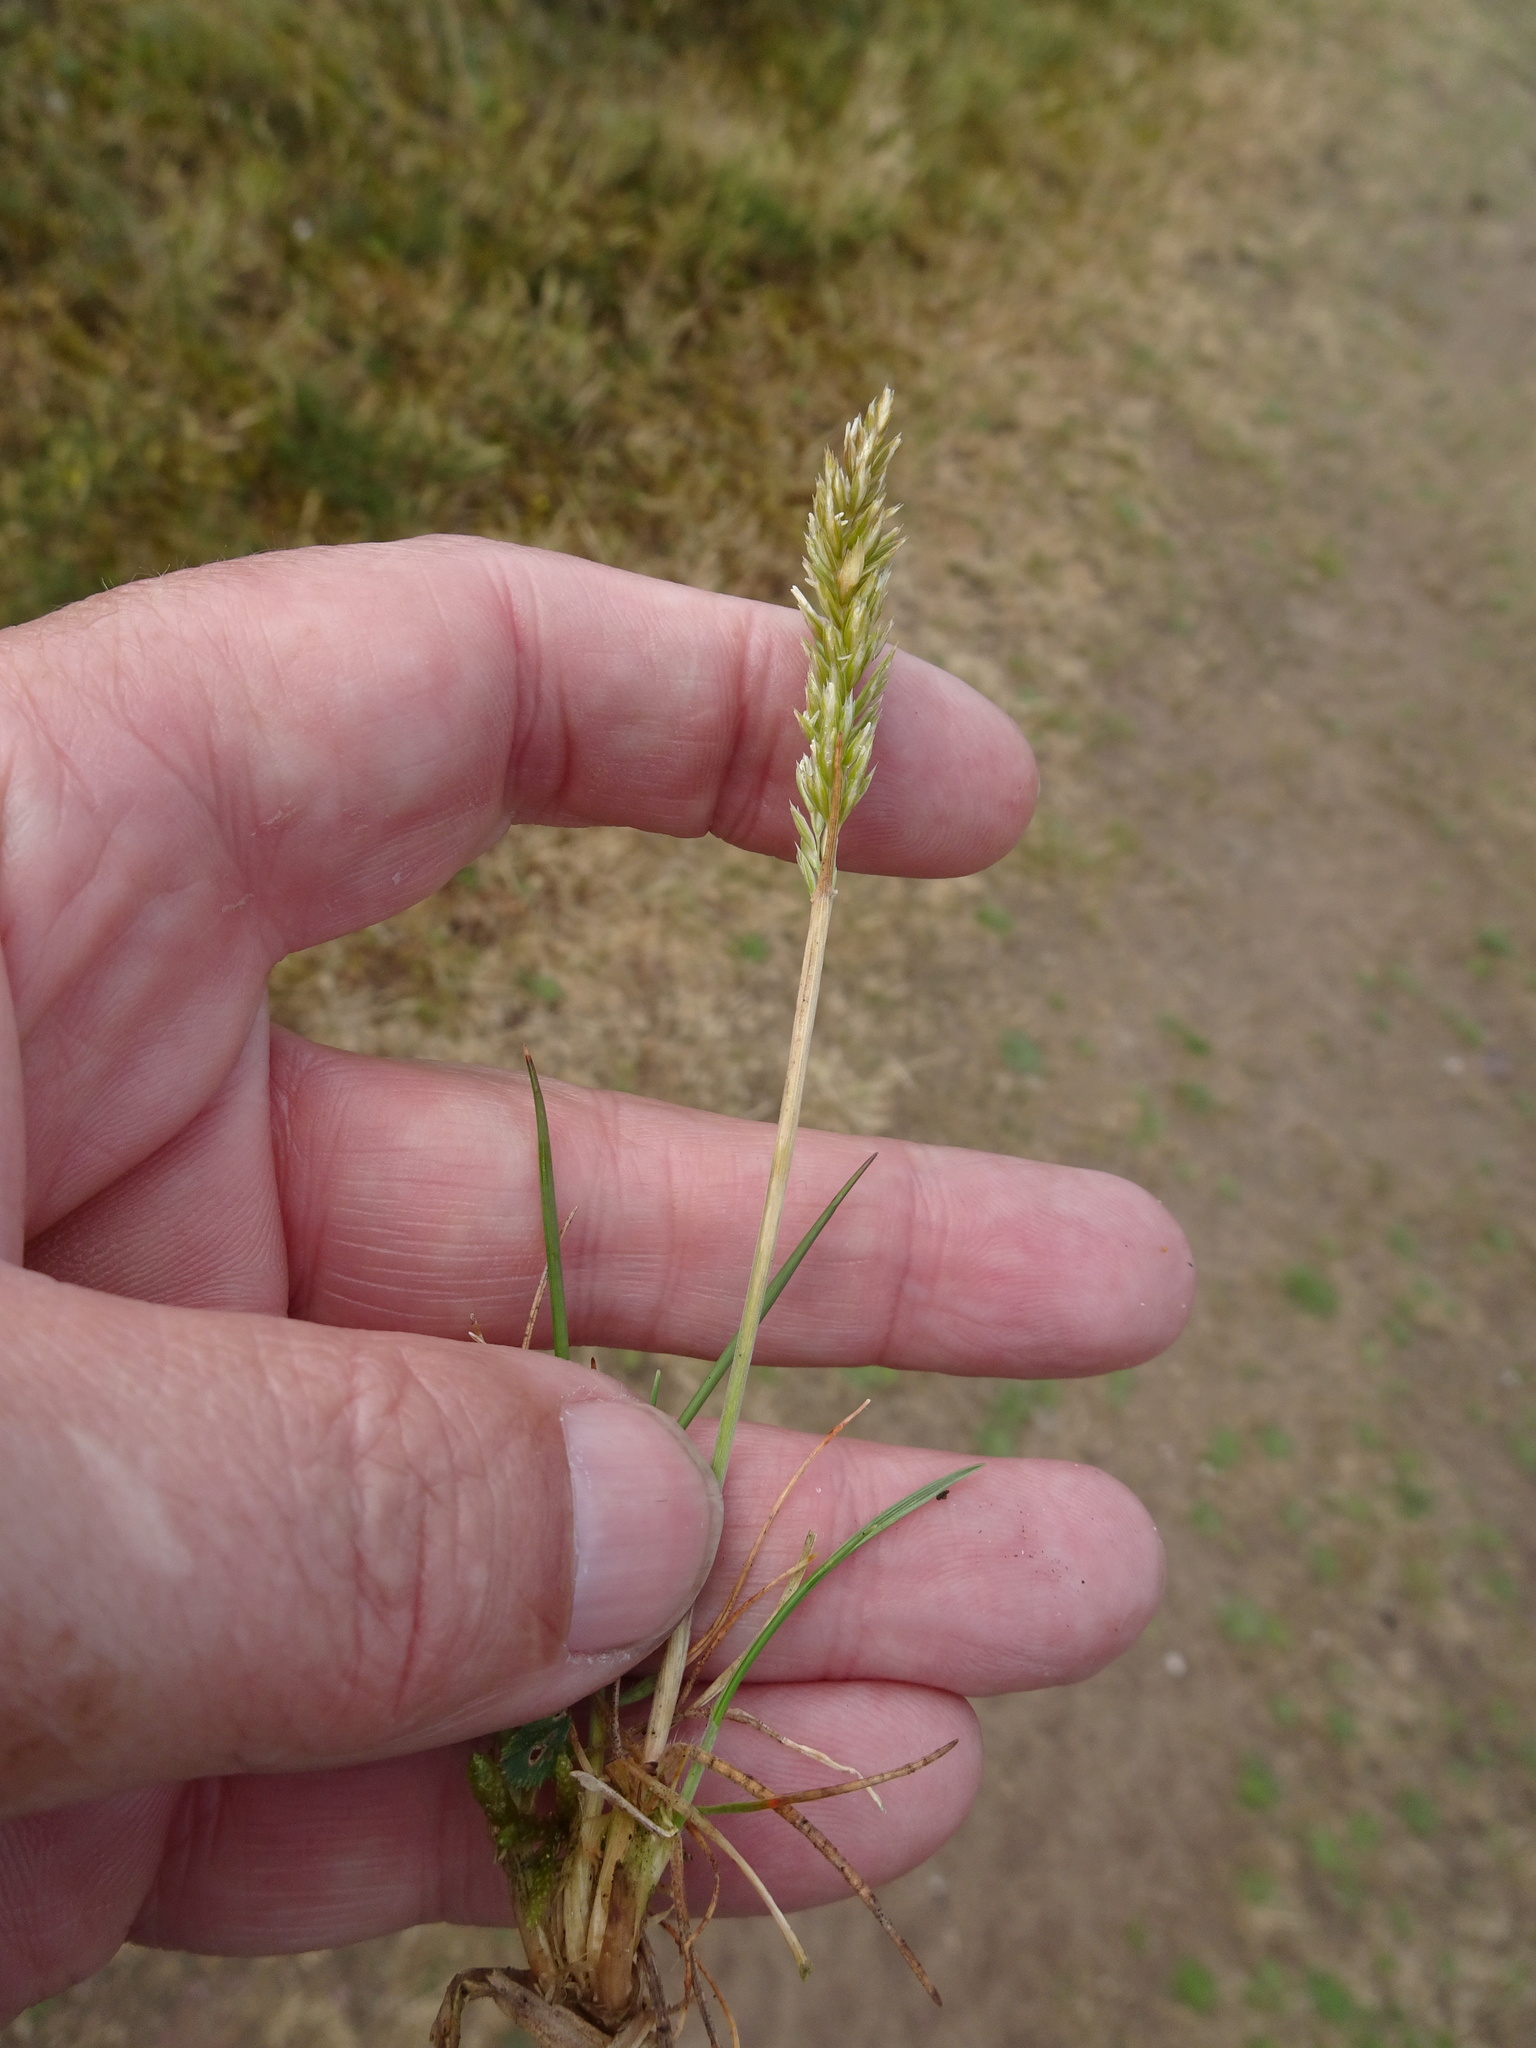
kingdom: Plantae
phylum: Tracheophyta
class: Liliopsida
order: Poales
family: Poaceae
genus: Koeleria
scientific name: Koeleria macrantha
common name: Crested hair-grass
